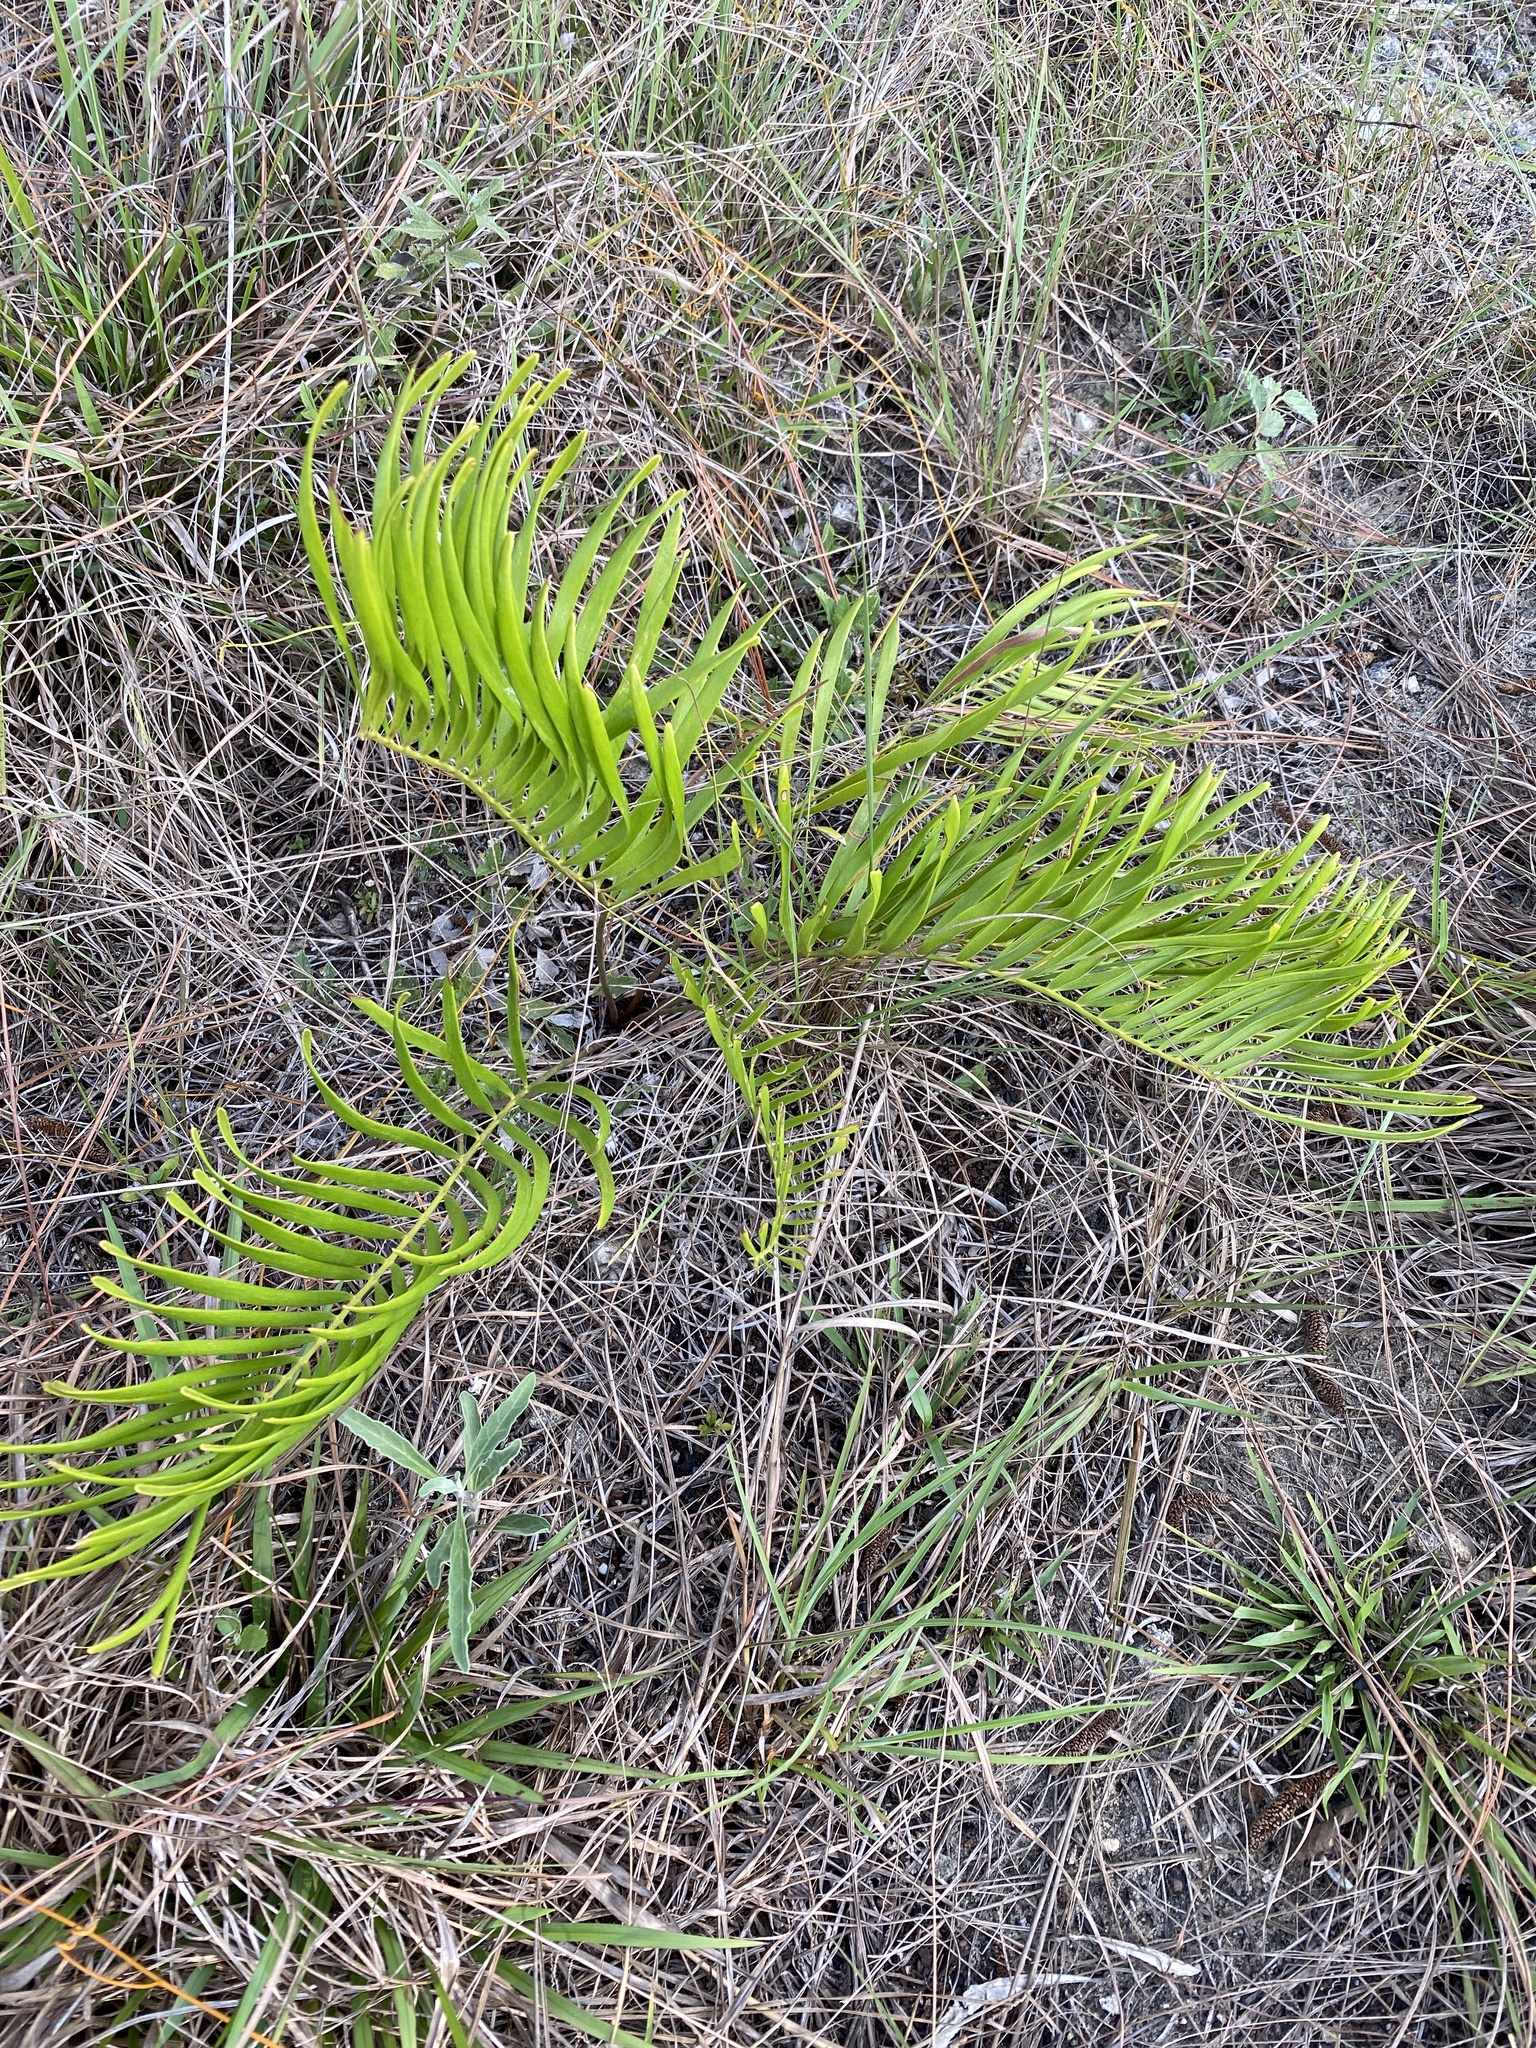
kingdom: Plantae
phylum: Tracheophyta
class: Cycadopsida
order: Cycadales
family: Zamiaceae
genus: Zamia
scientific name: Zamia integrifolia
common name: Florida arrowroot
